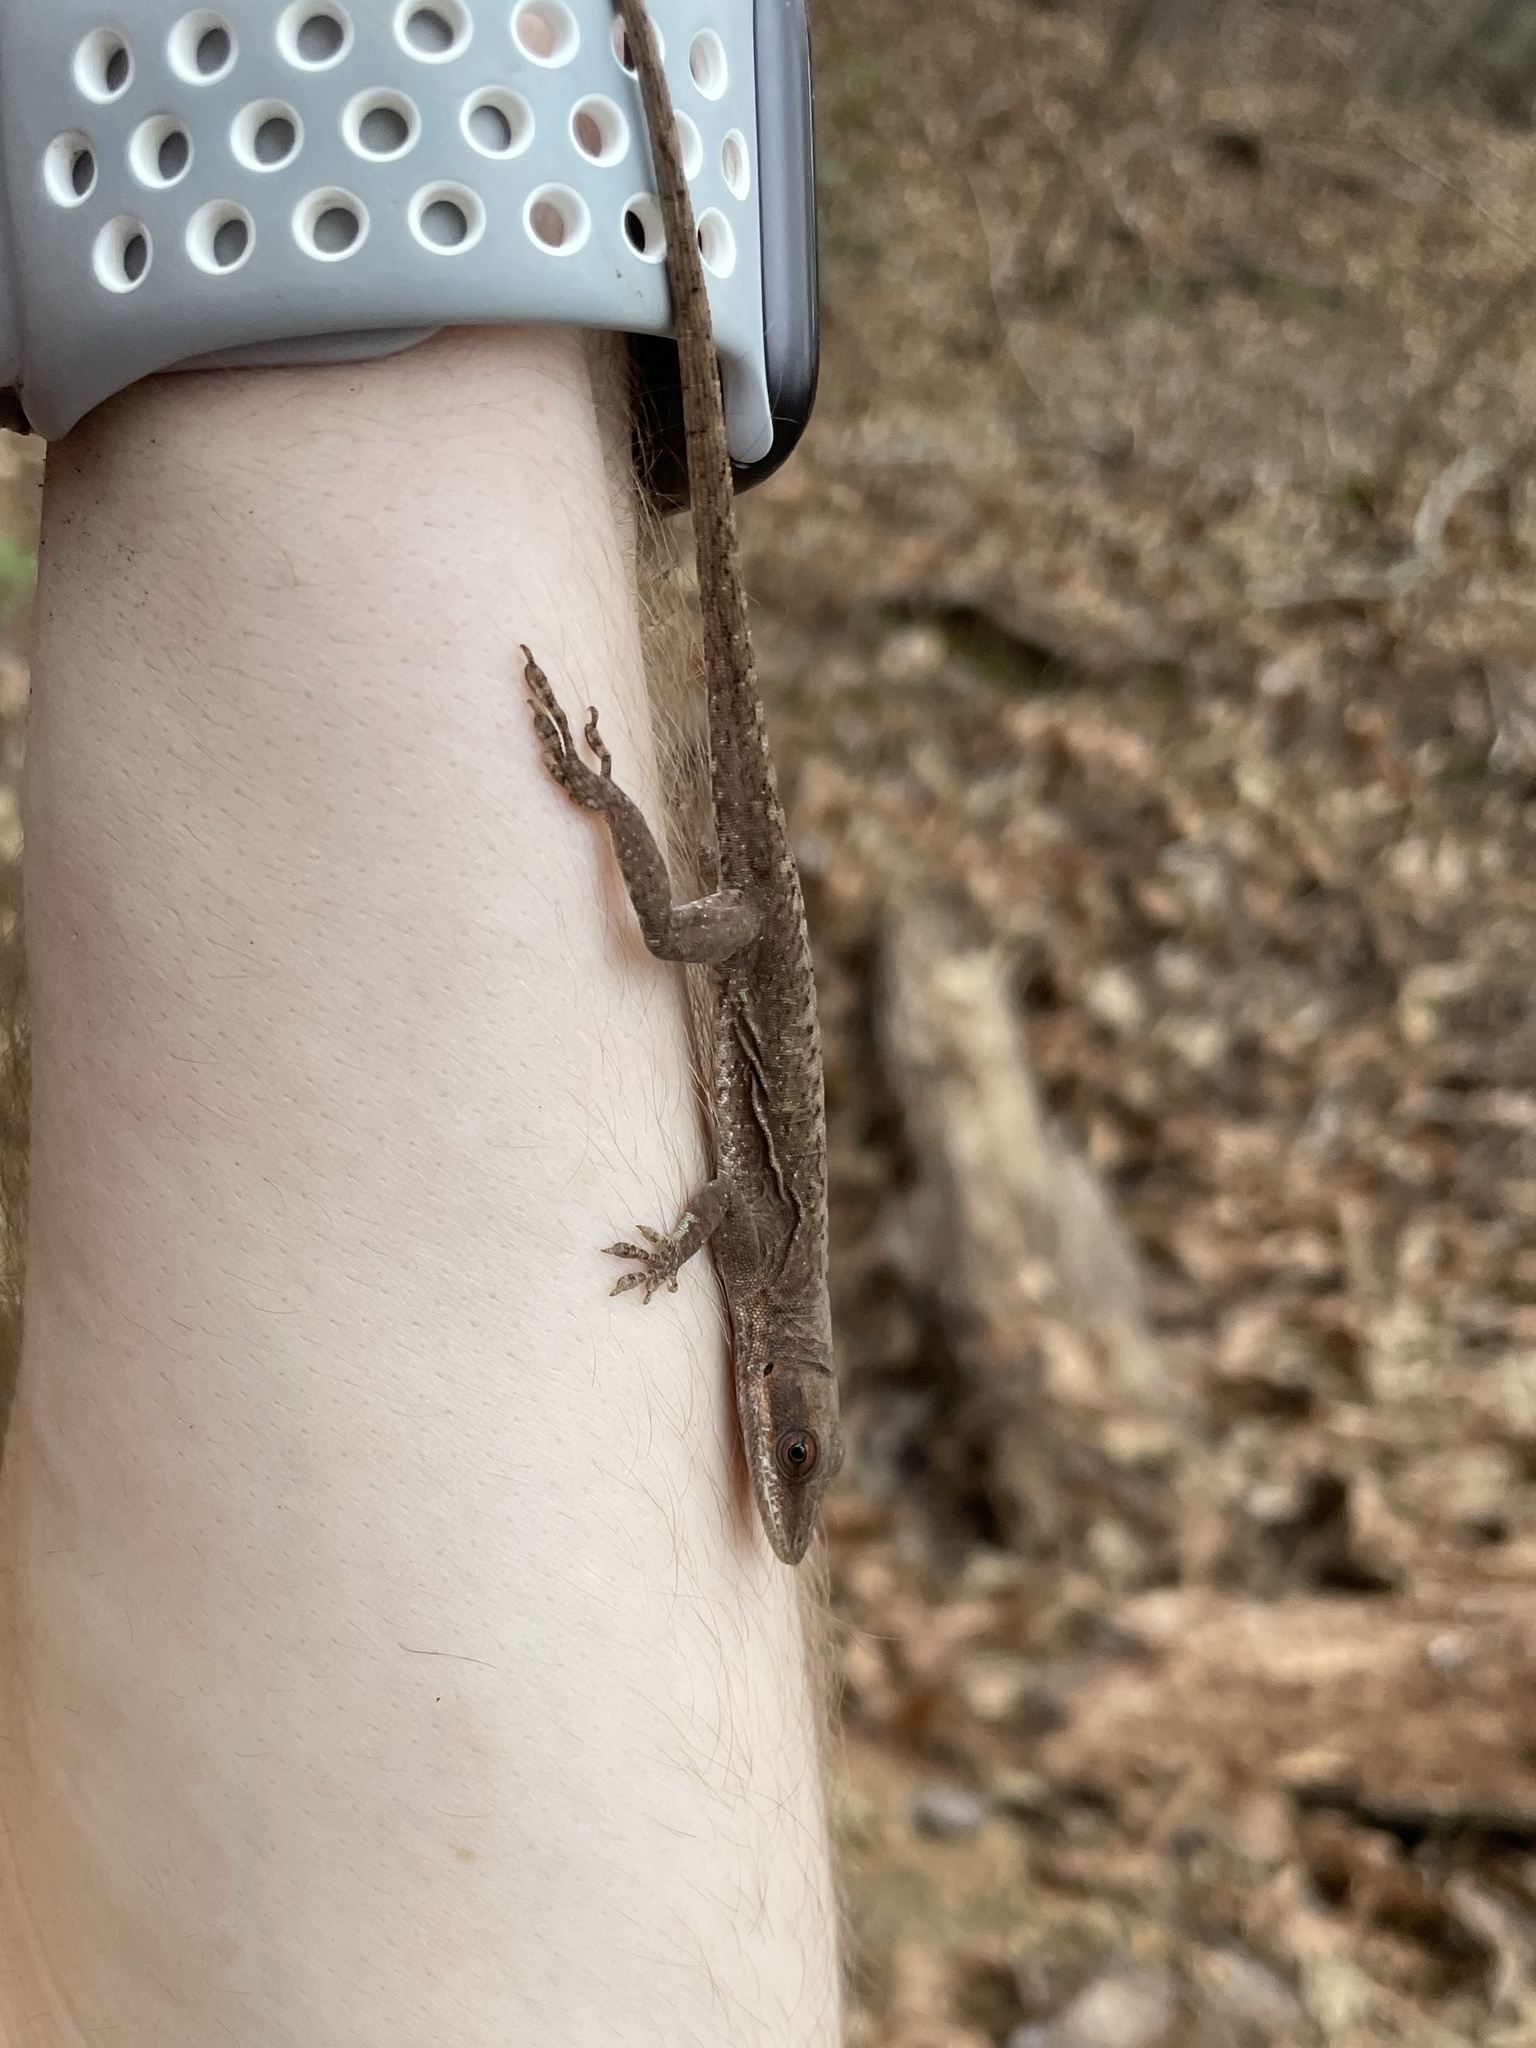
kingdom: Animalia
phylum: Chordata
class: Squamata
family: Dactyloidae
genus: Anolis
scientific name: Anolis carolinensis
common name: Green anole
